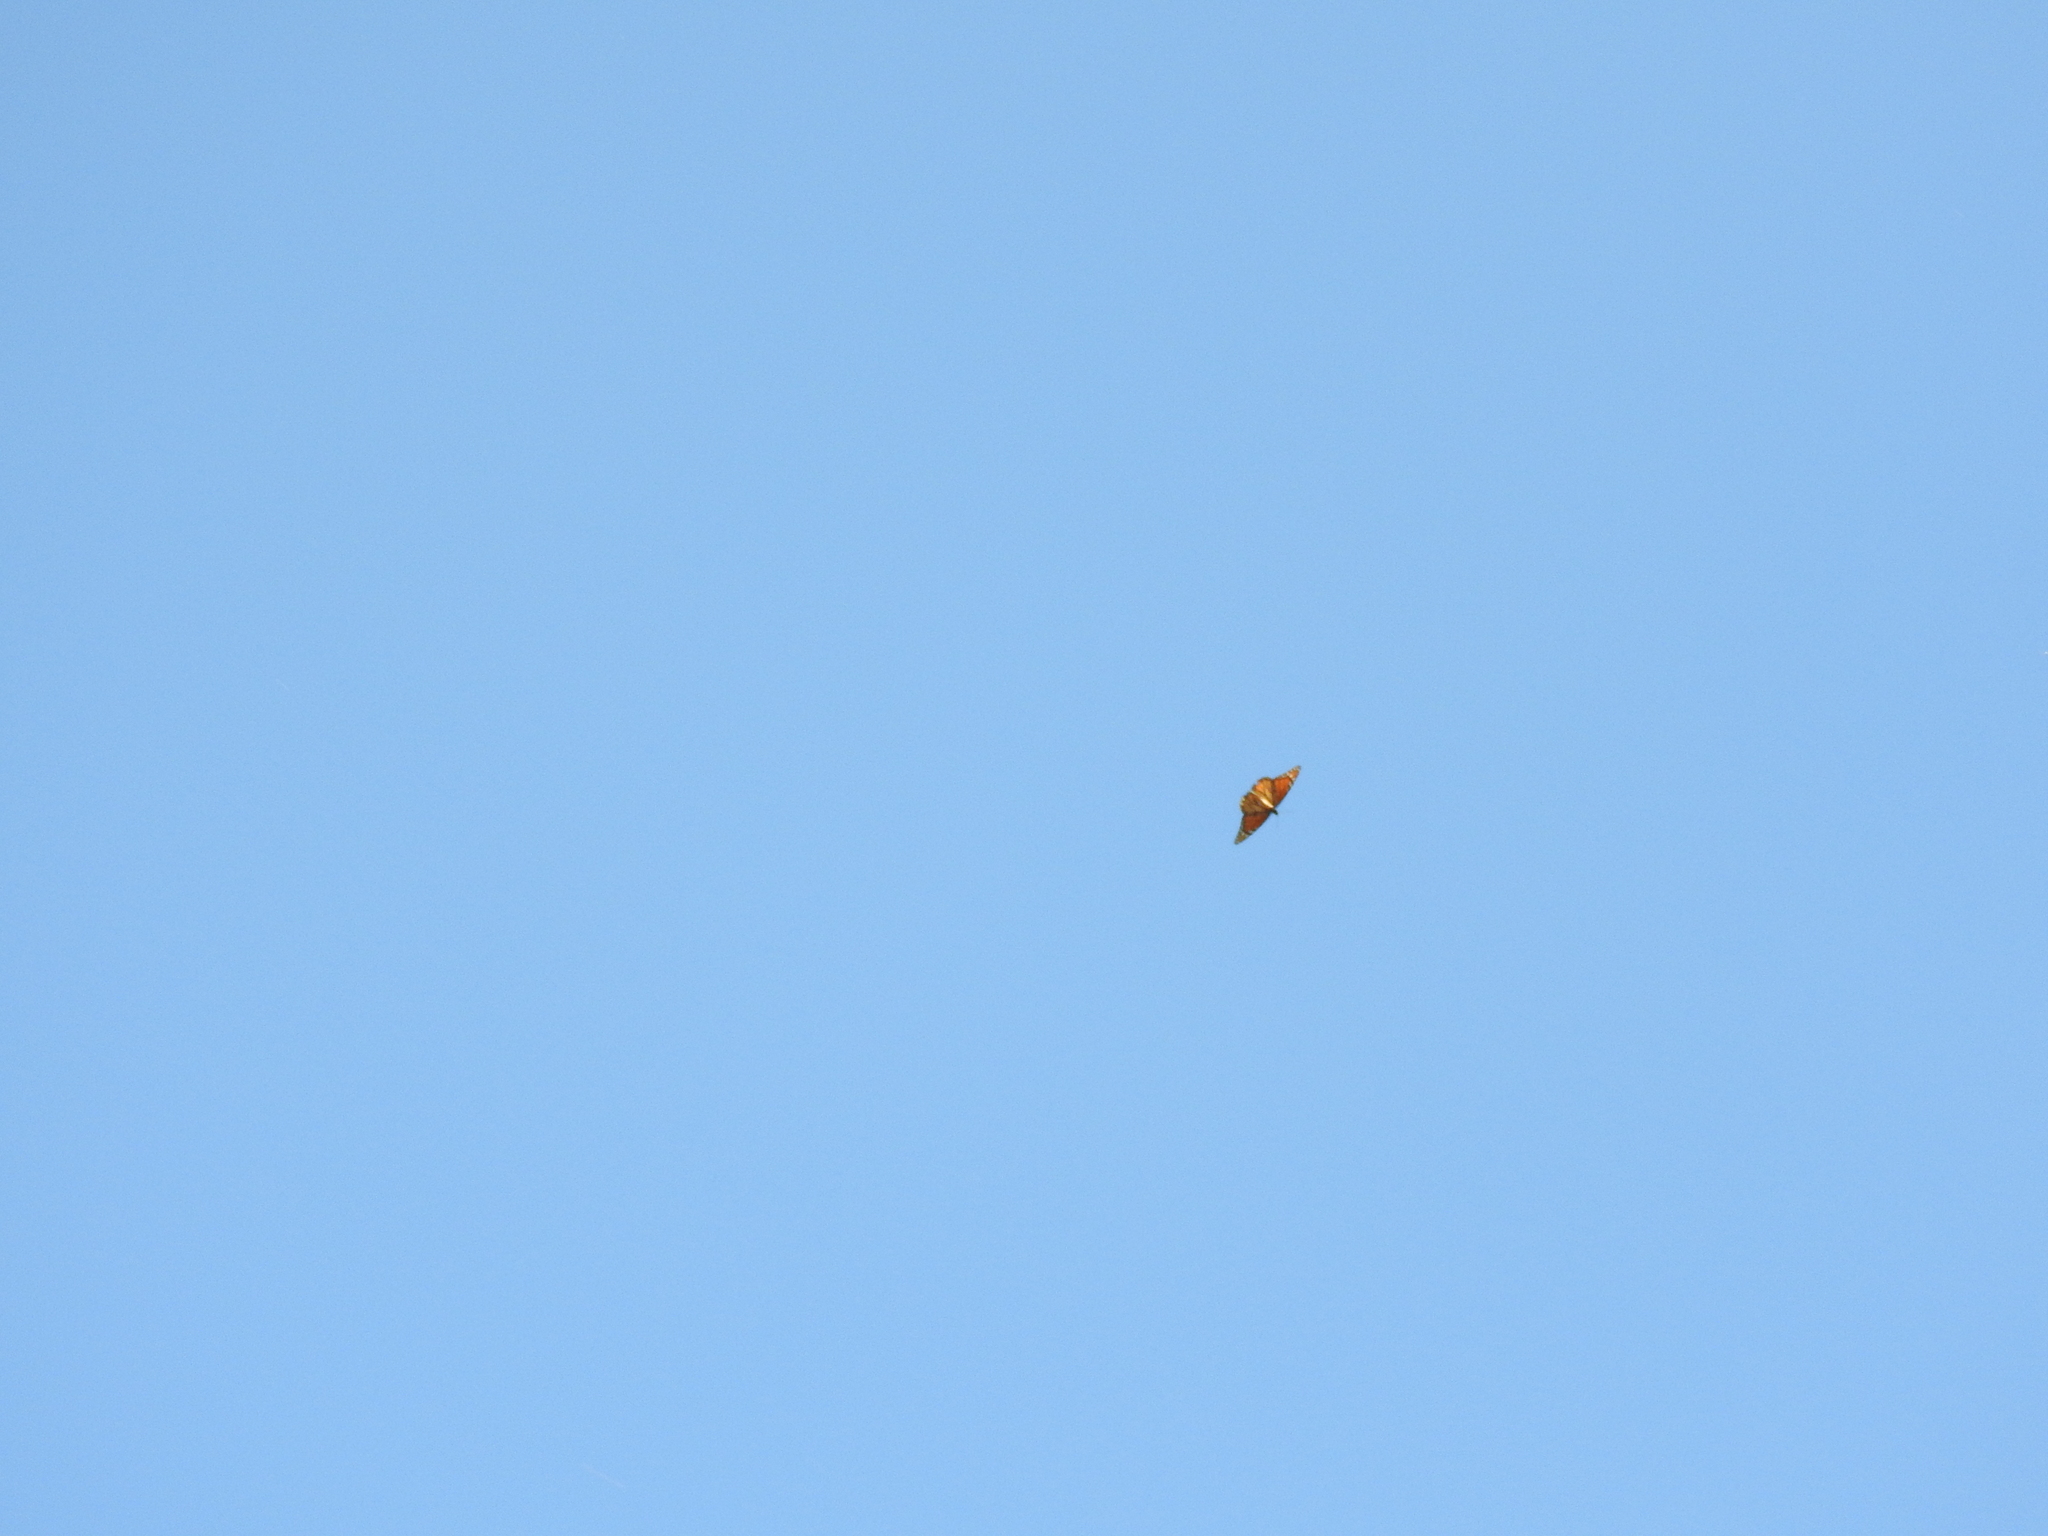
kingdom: Animalia
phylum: Arthropoda
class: Insecta
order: Lepidoptera
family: Nymphalidae
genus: Danaus
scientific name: Danaus plexippus
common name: Monarch
